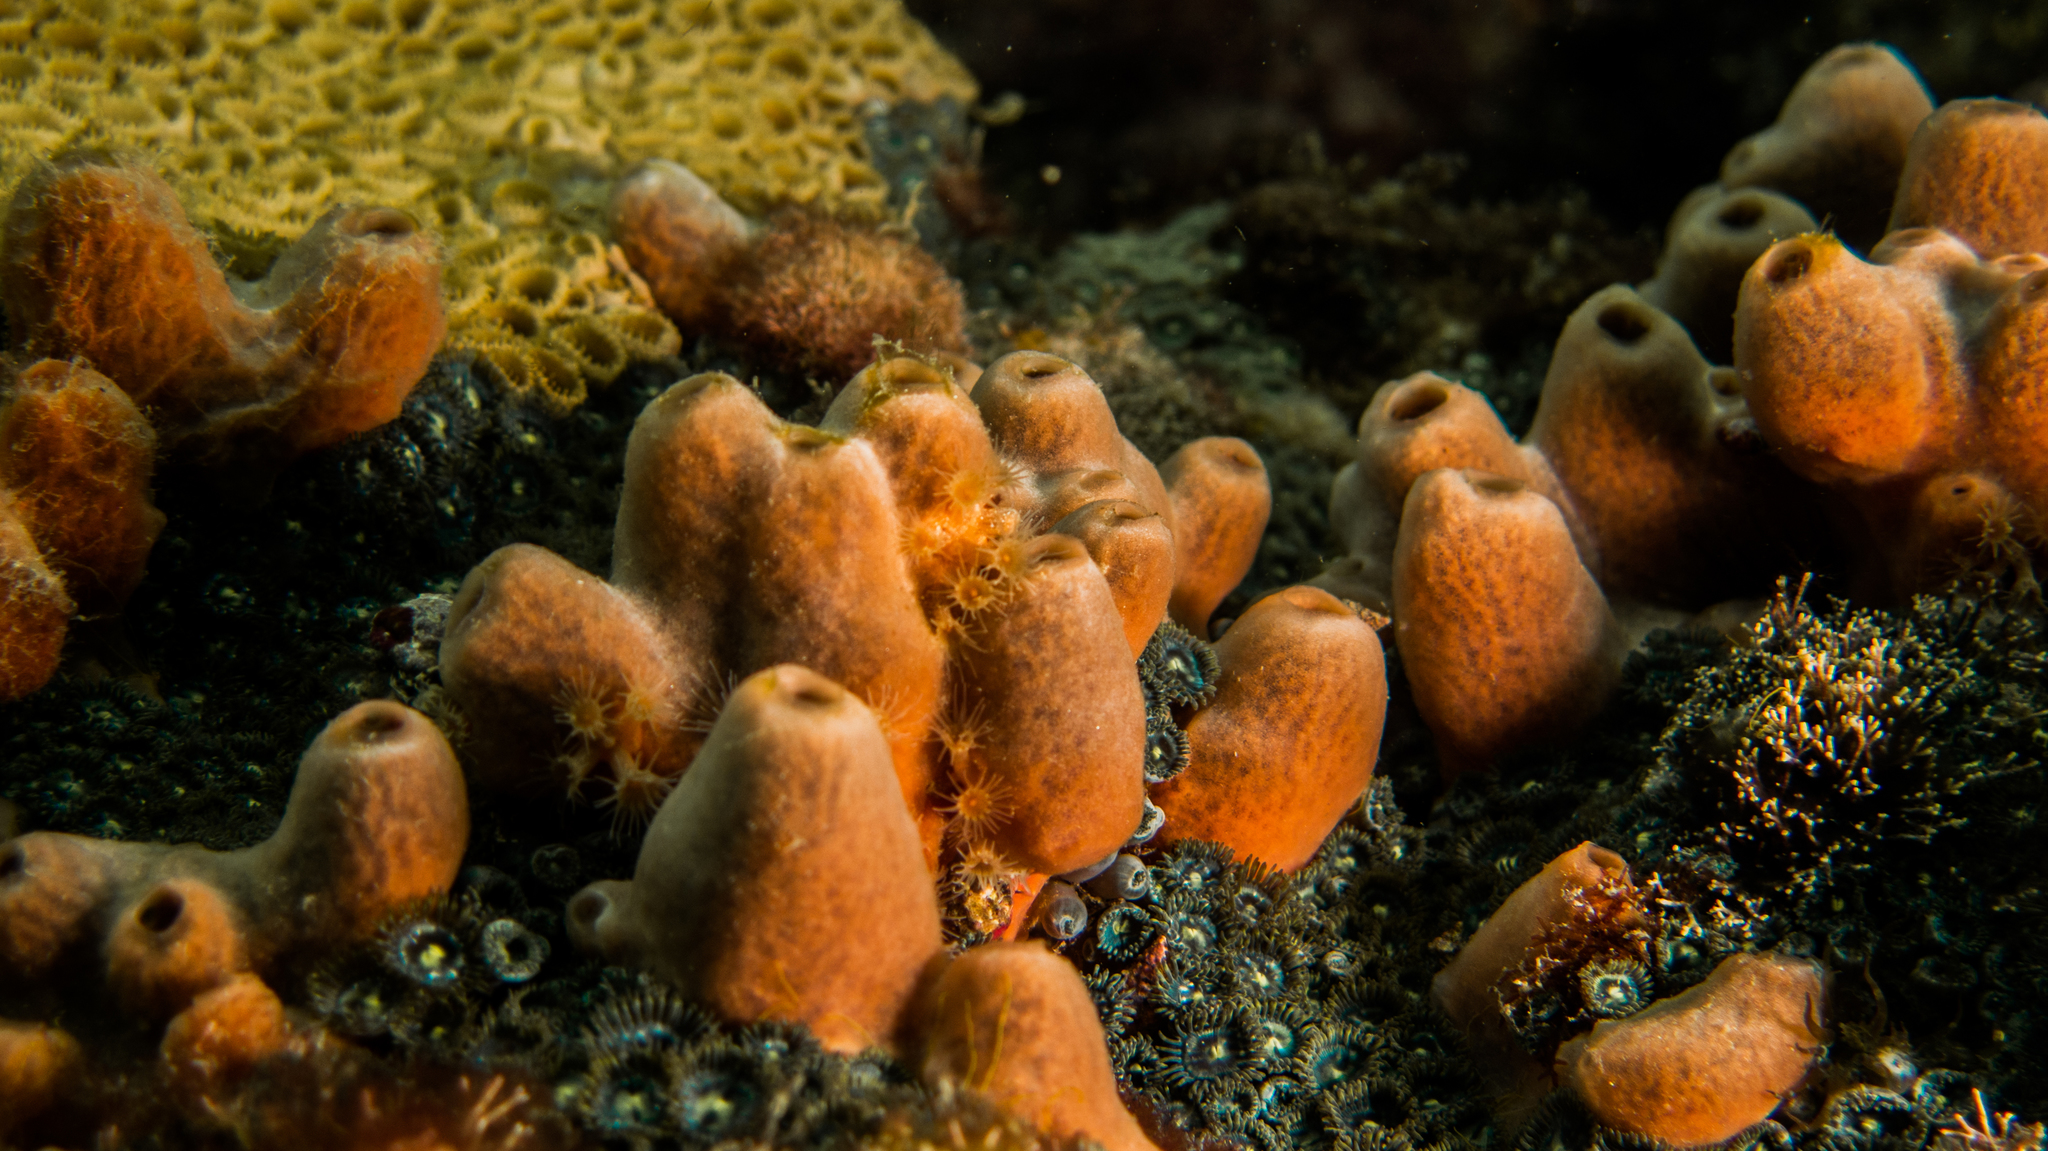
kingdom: Animalia
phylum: Porifera
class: Demospongiae
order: Poecilosclerida
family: Desmacididae
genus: Desmapsamma
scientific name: Desmapsamma anchorata
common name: Lumpy overgrowing sponge
